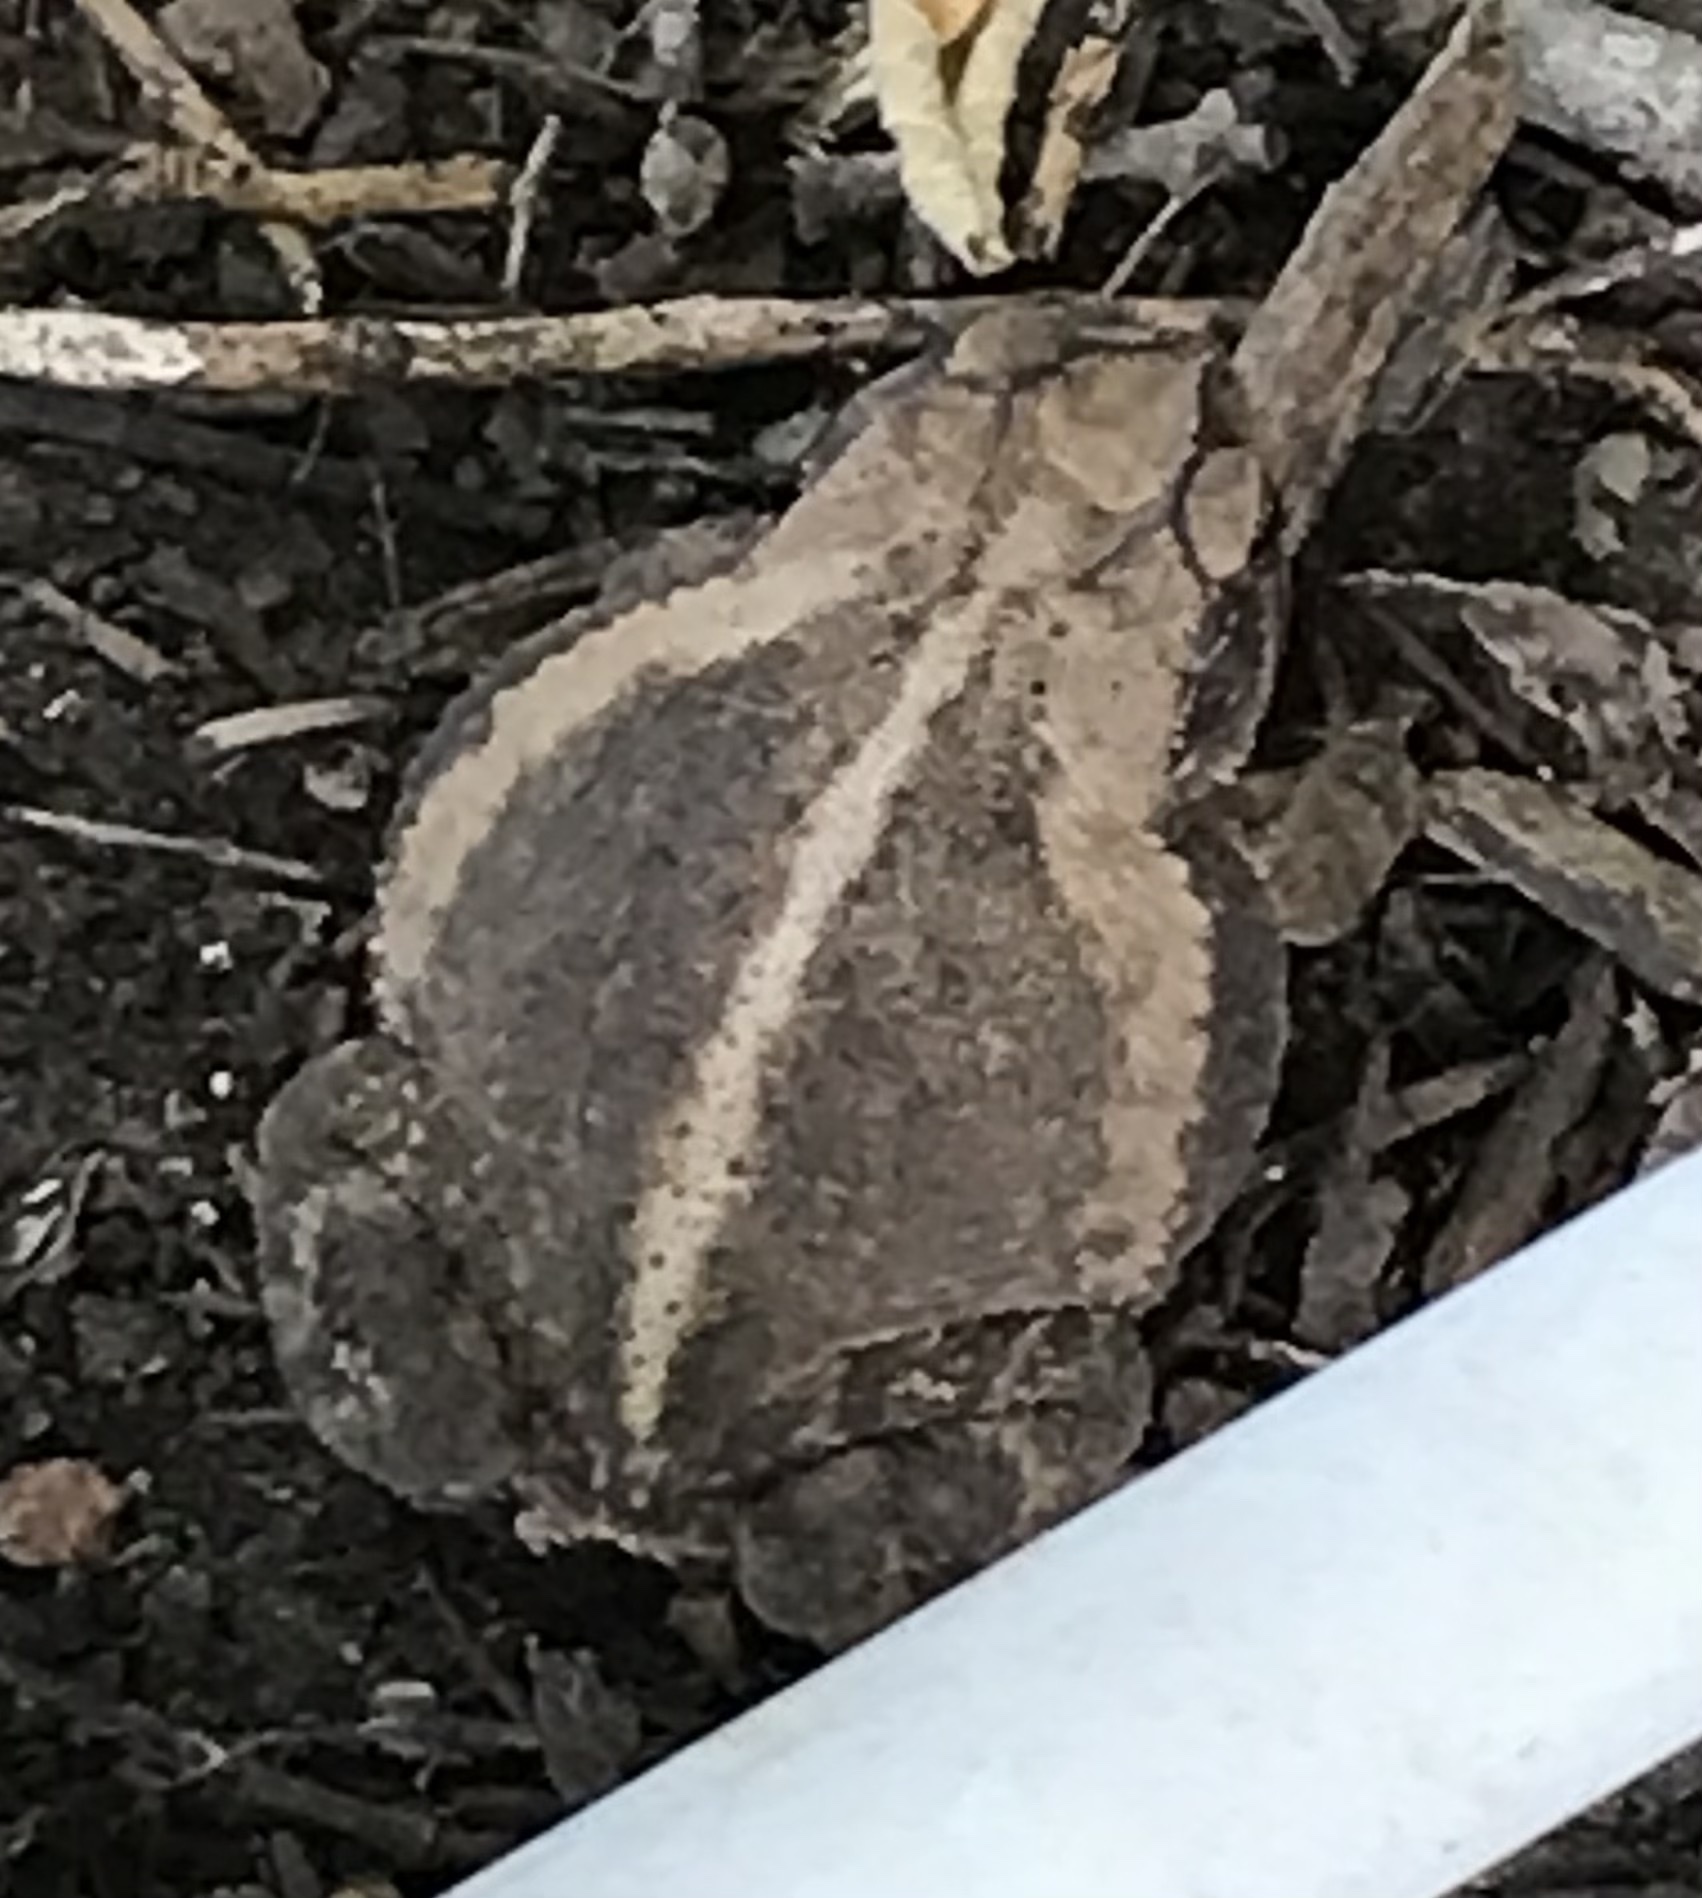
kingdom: Animalia
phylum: Chordata
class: Amphibia
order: Anura
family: Bufonidae
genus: Incilius
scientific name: Incilius nebulifer
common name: Gulf coast toad
